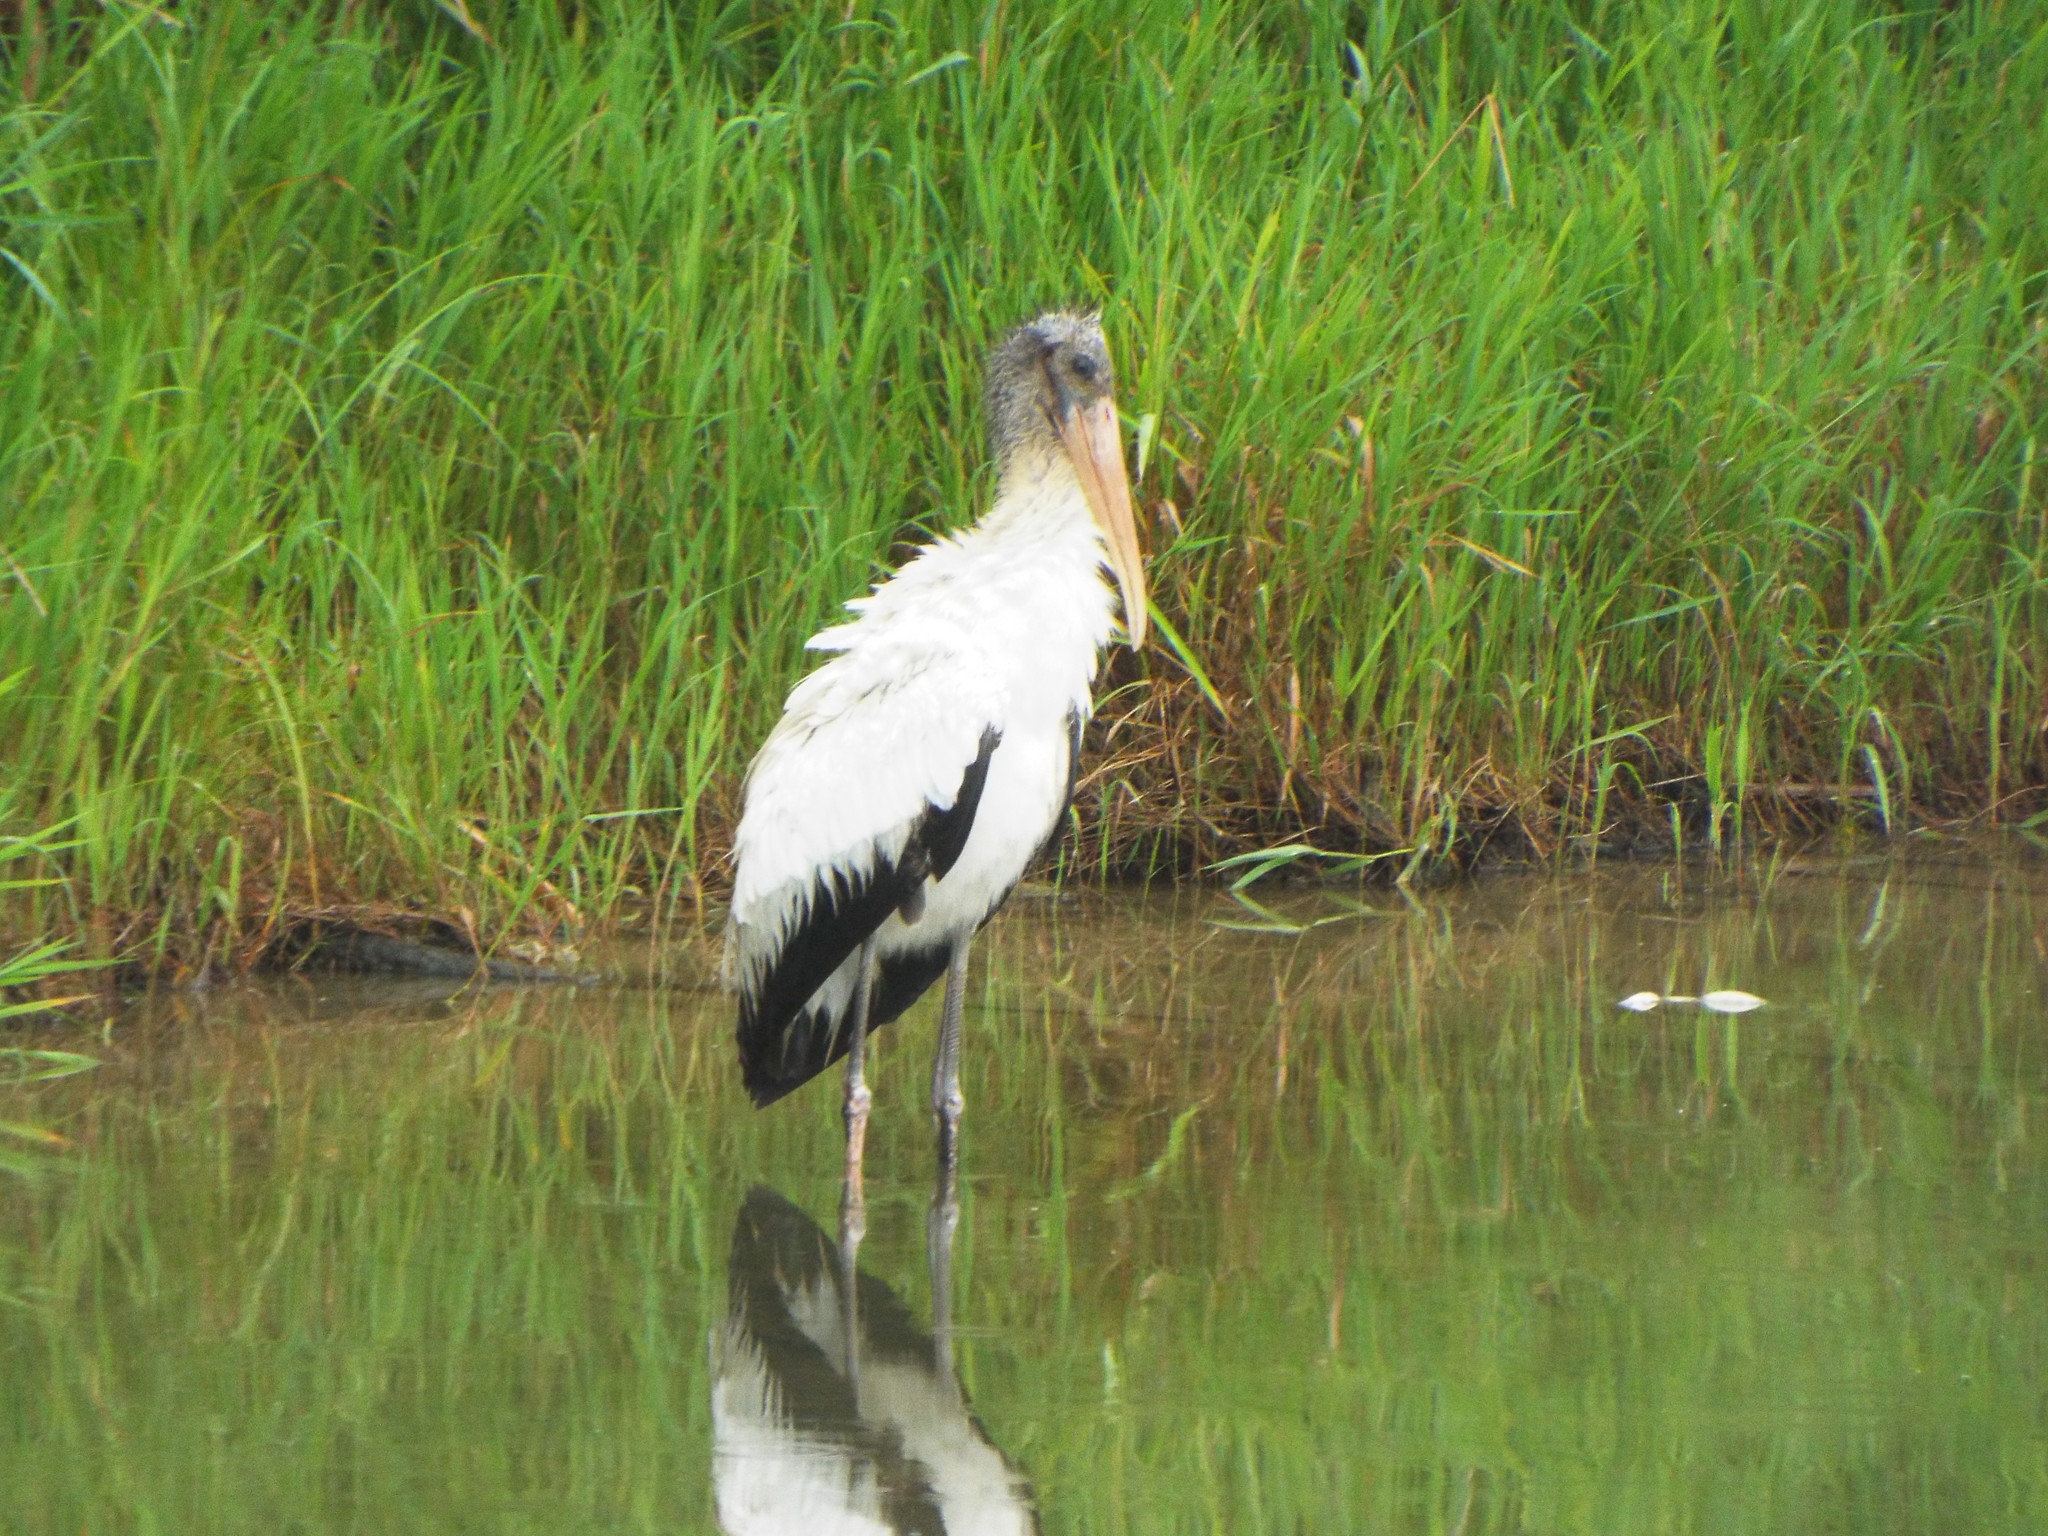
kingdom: Animalia
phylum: Chordata
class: Aves
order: Ciconiiformes
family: Ciconiidae
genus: Mycteria
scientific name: Mycteria americana
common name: Wood stork
